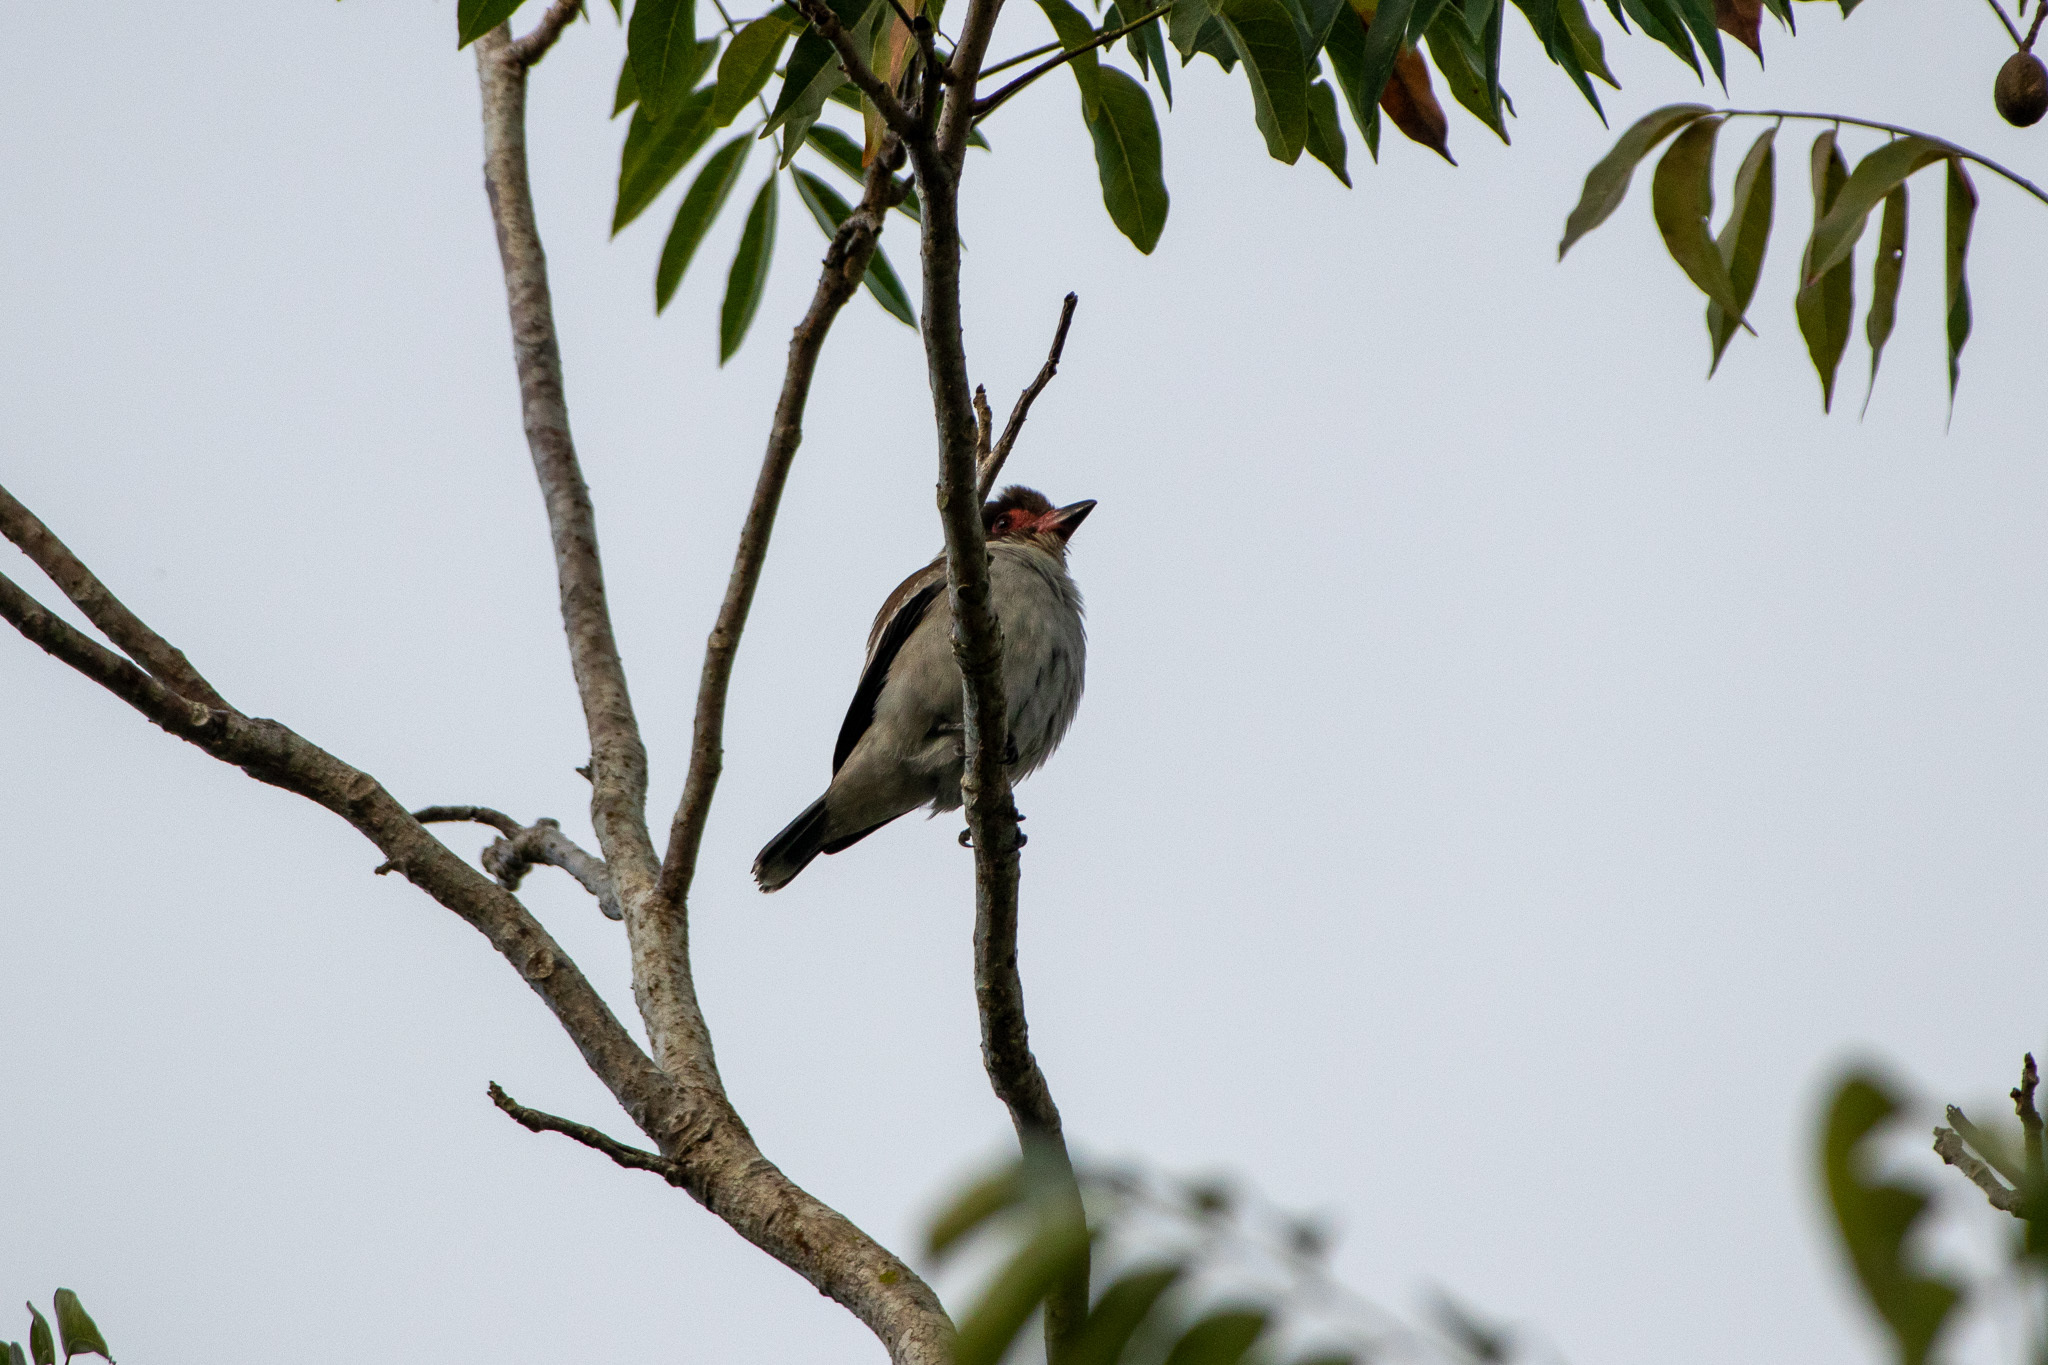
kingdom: Animalia
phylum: Chordata
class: Aves
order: Passeriformes
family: Cotingidae
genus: Tityra
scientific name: Tityra semifasciata
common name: Masked tityra
